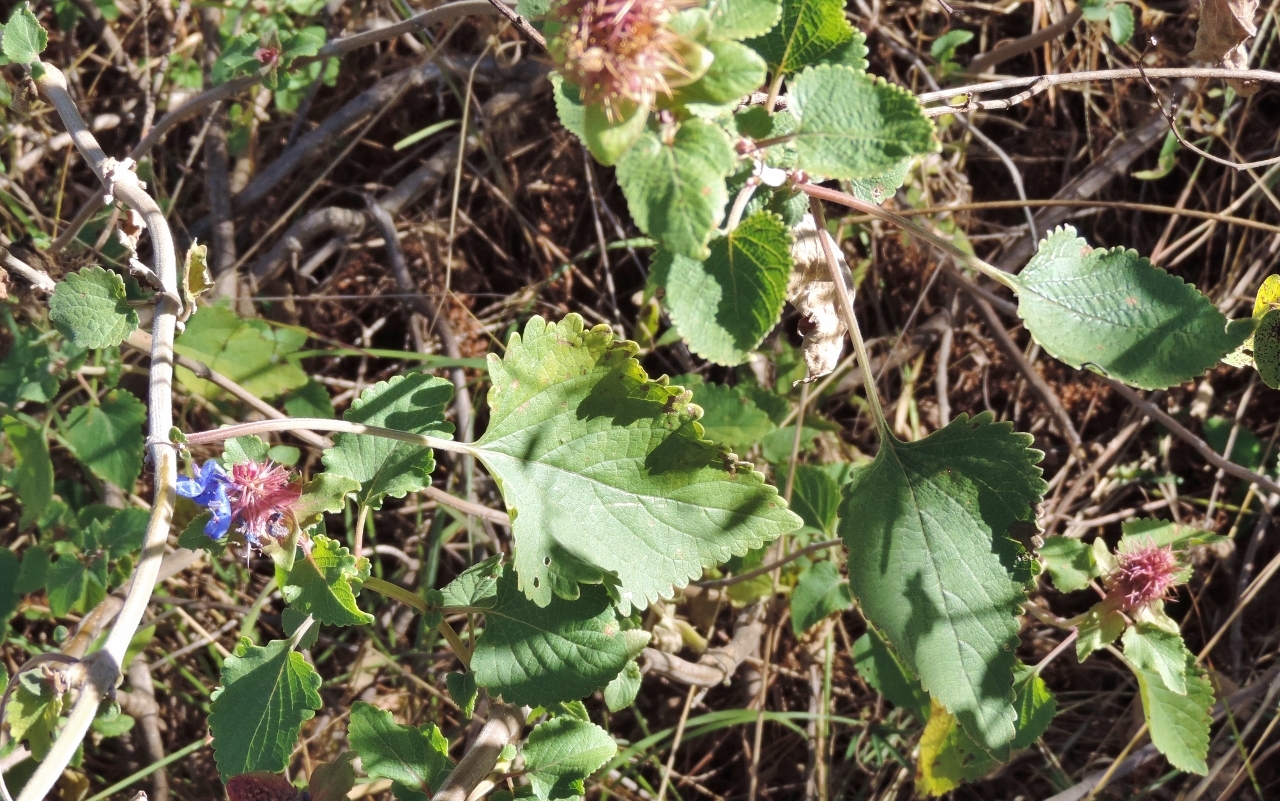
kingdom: Plantae
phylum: Tracheophyta
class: Magnoliopsida
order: Lamiales
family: Lamiaceae
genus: Coleus
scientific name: Coleus livingstonei
